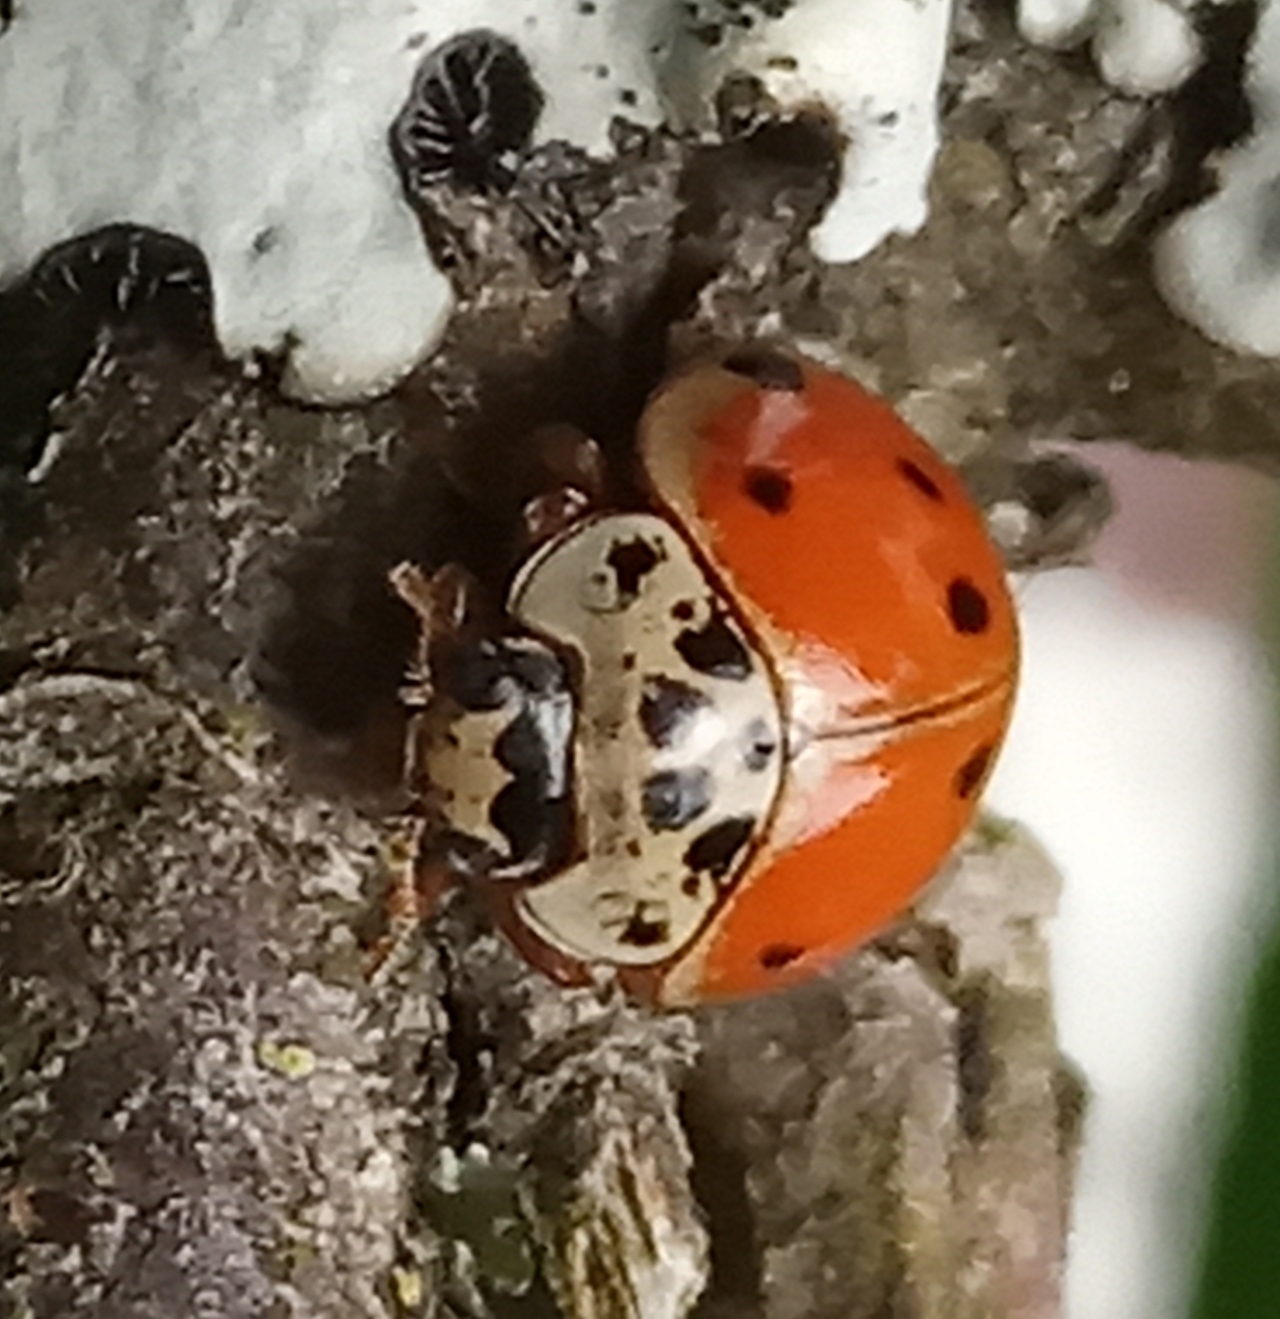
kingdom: Animalia
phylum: Arthropoda
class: Insecta
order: Coleoptera
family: Coccinellidae
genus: Adalia
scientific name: Adalia decempunctata
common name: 10-spot ladybird
